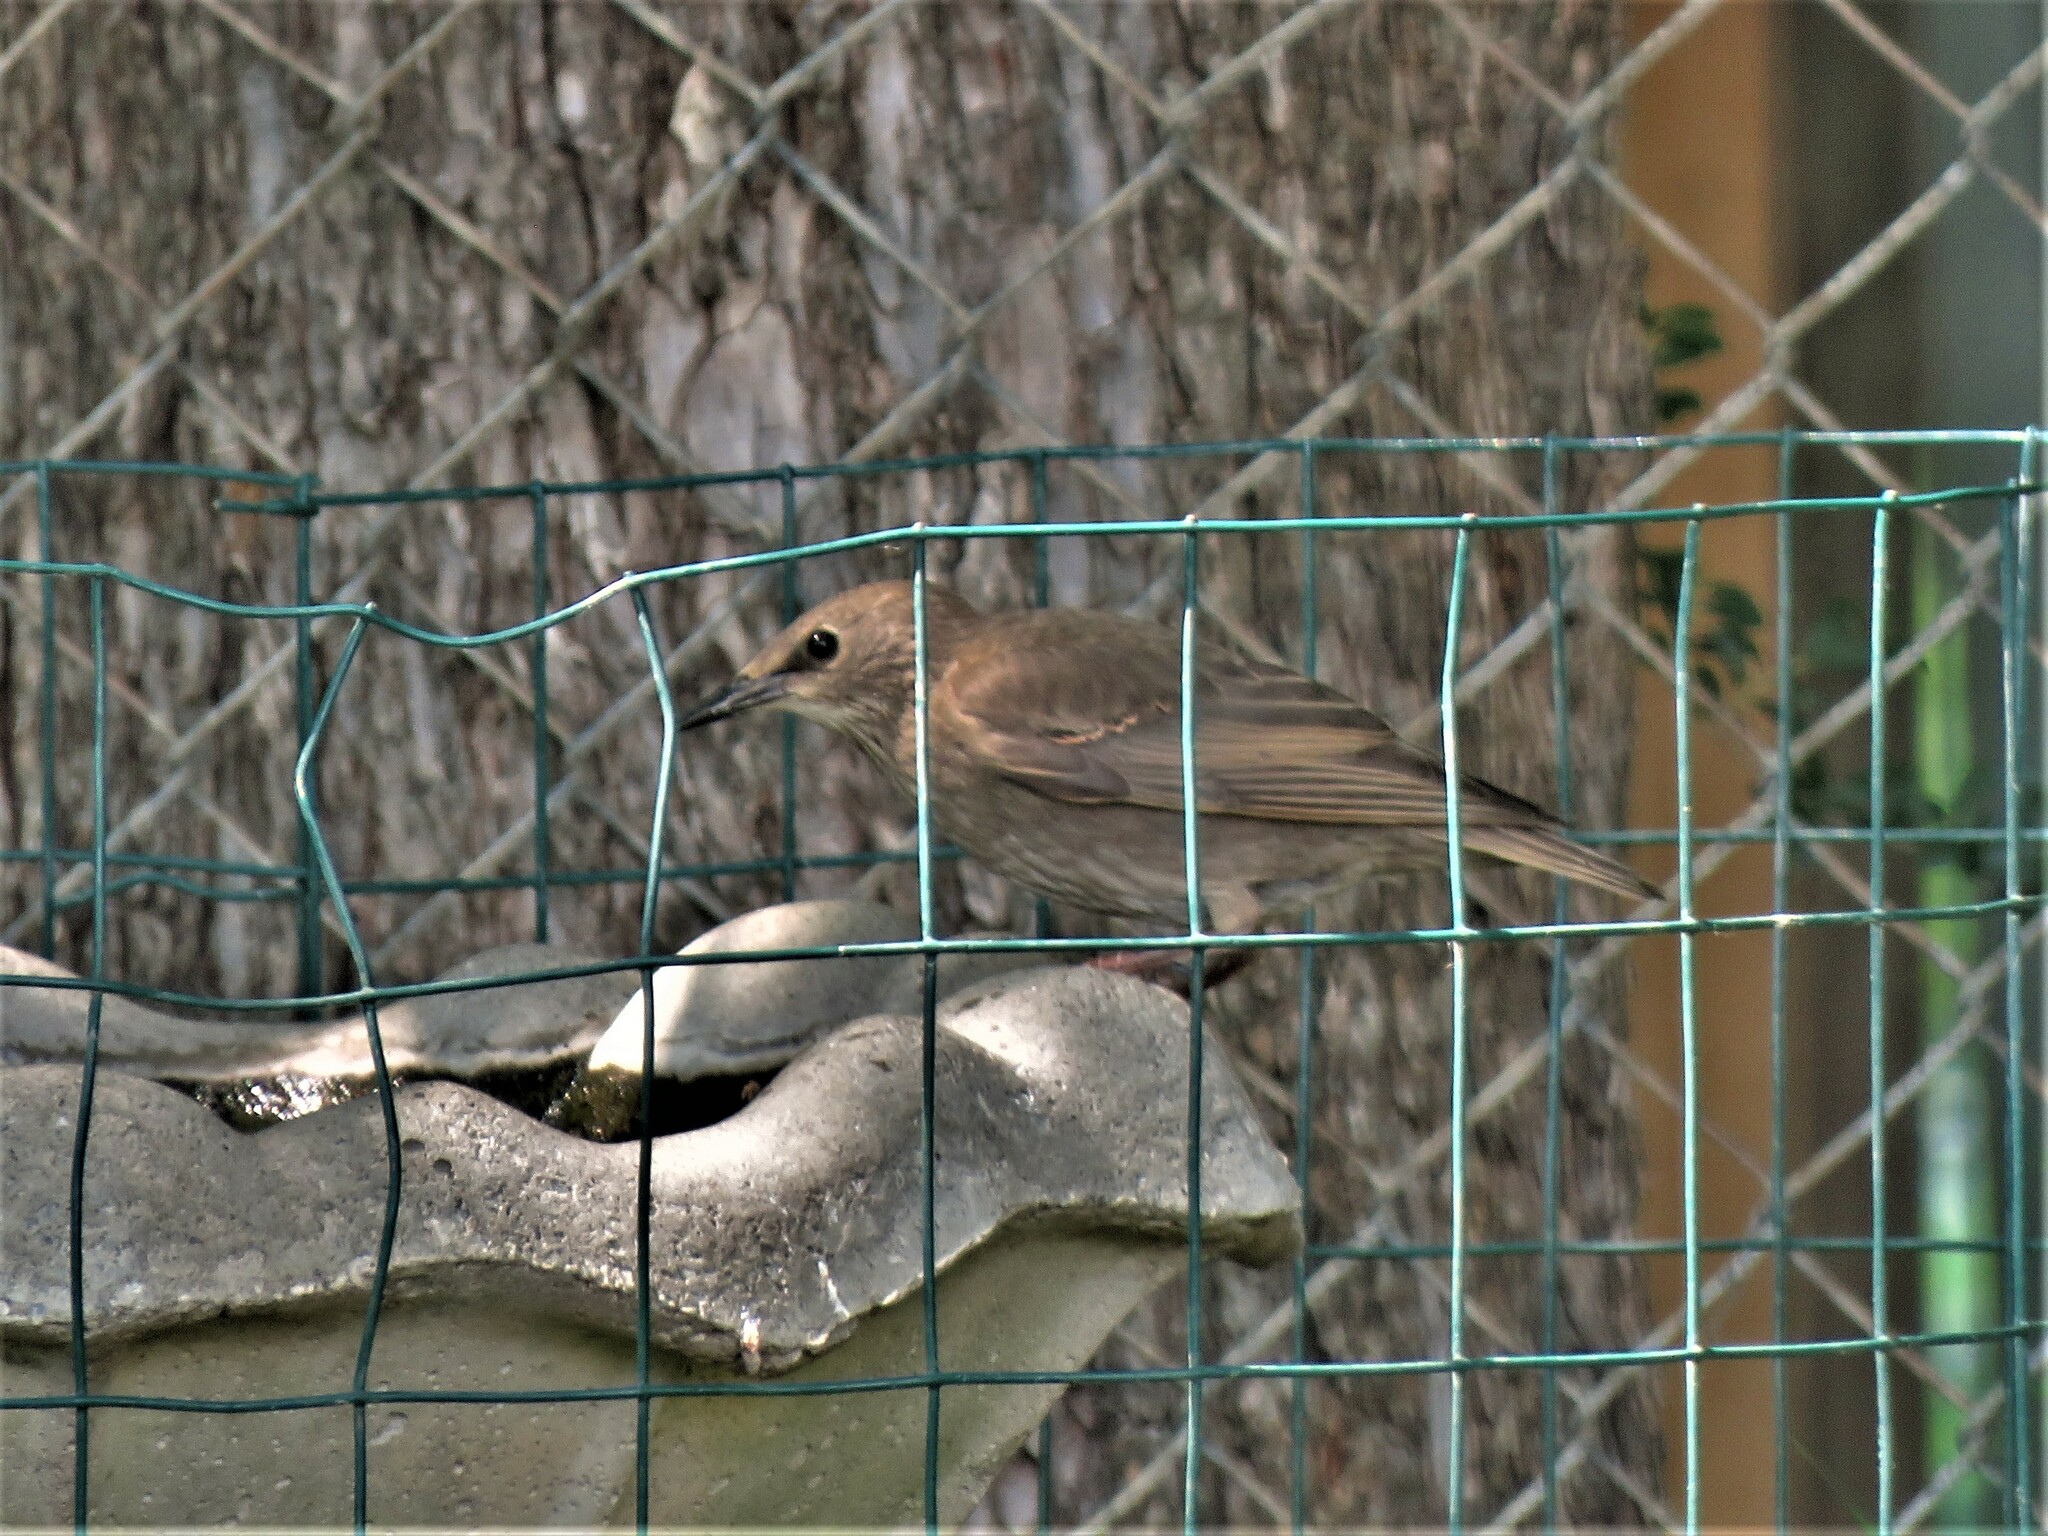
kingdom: Animalia
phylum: Chordata
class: Aves
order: Passeriformes
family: Sturnidae
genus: Sturnus
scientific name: Sturnus vulgaris
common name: Common starling
